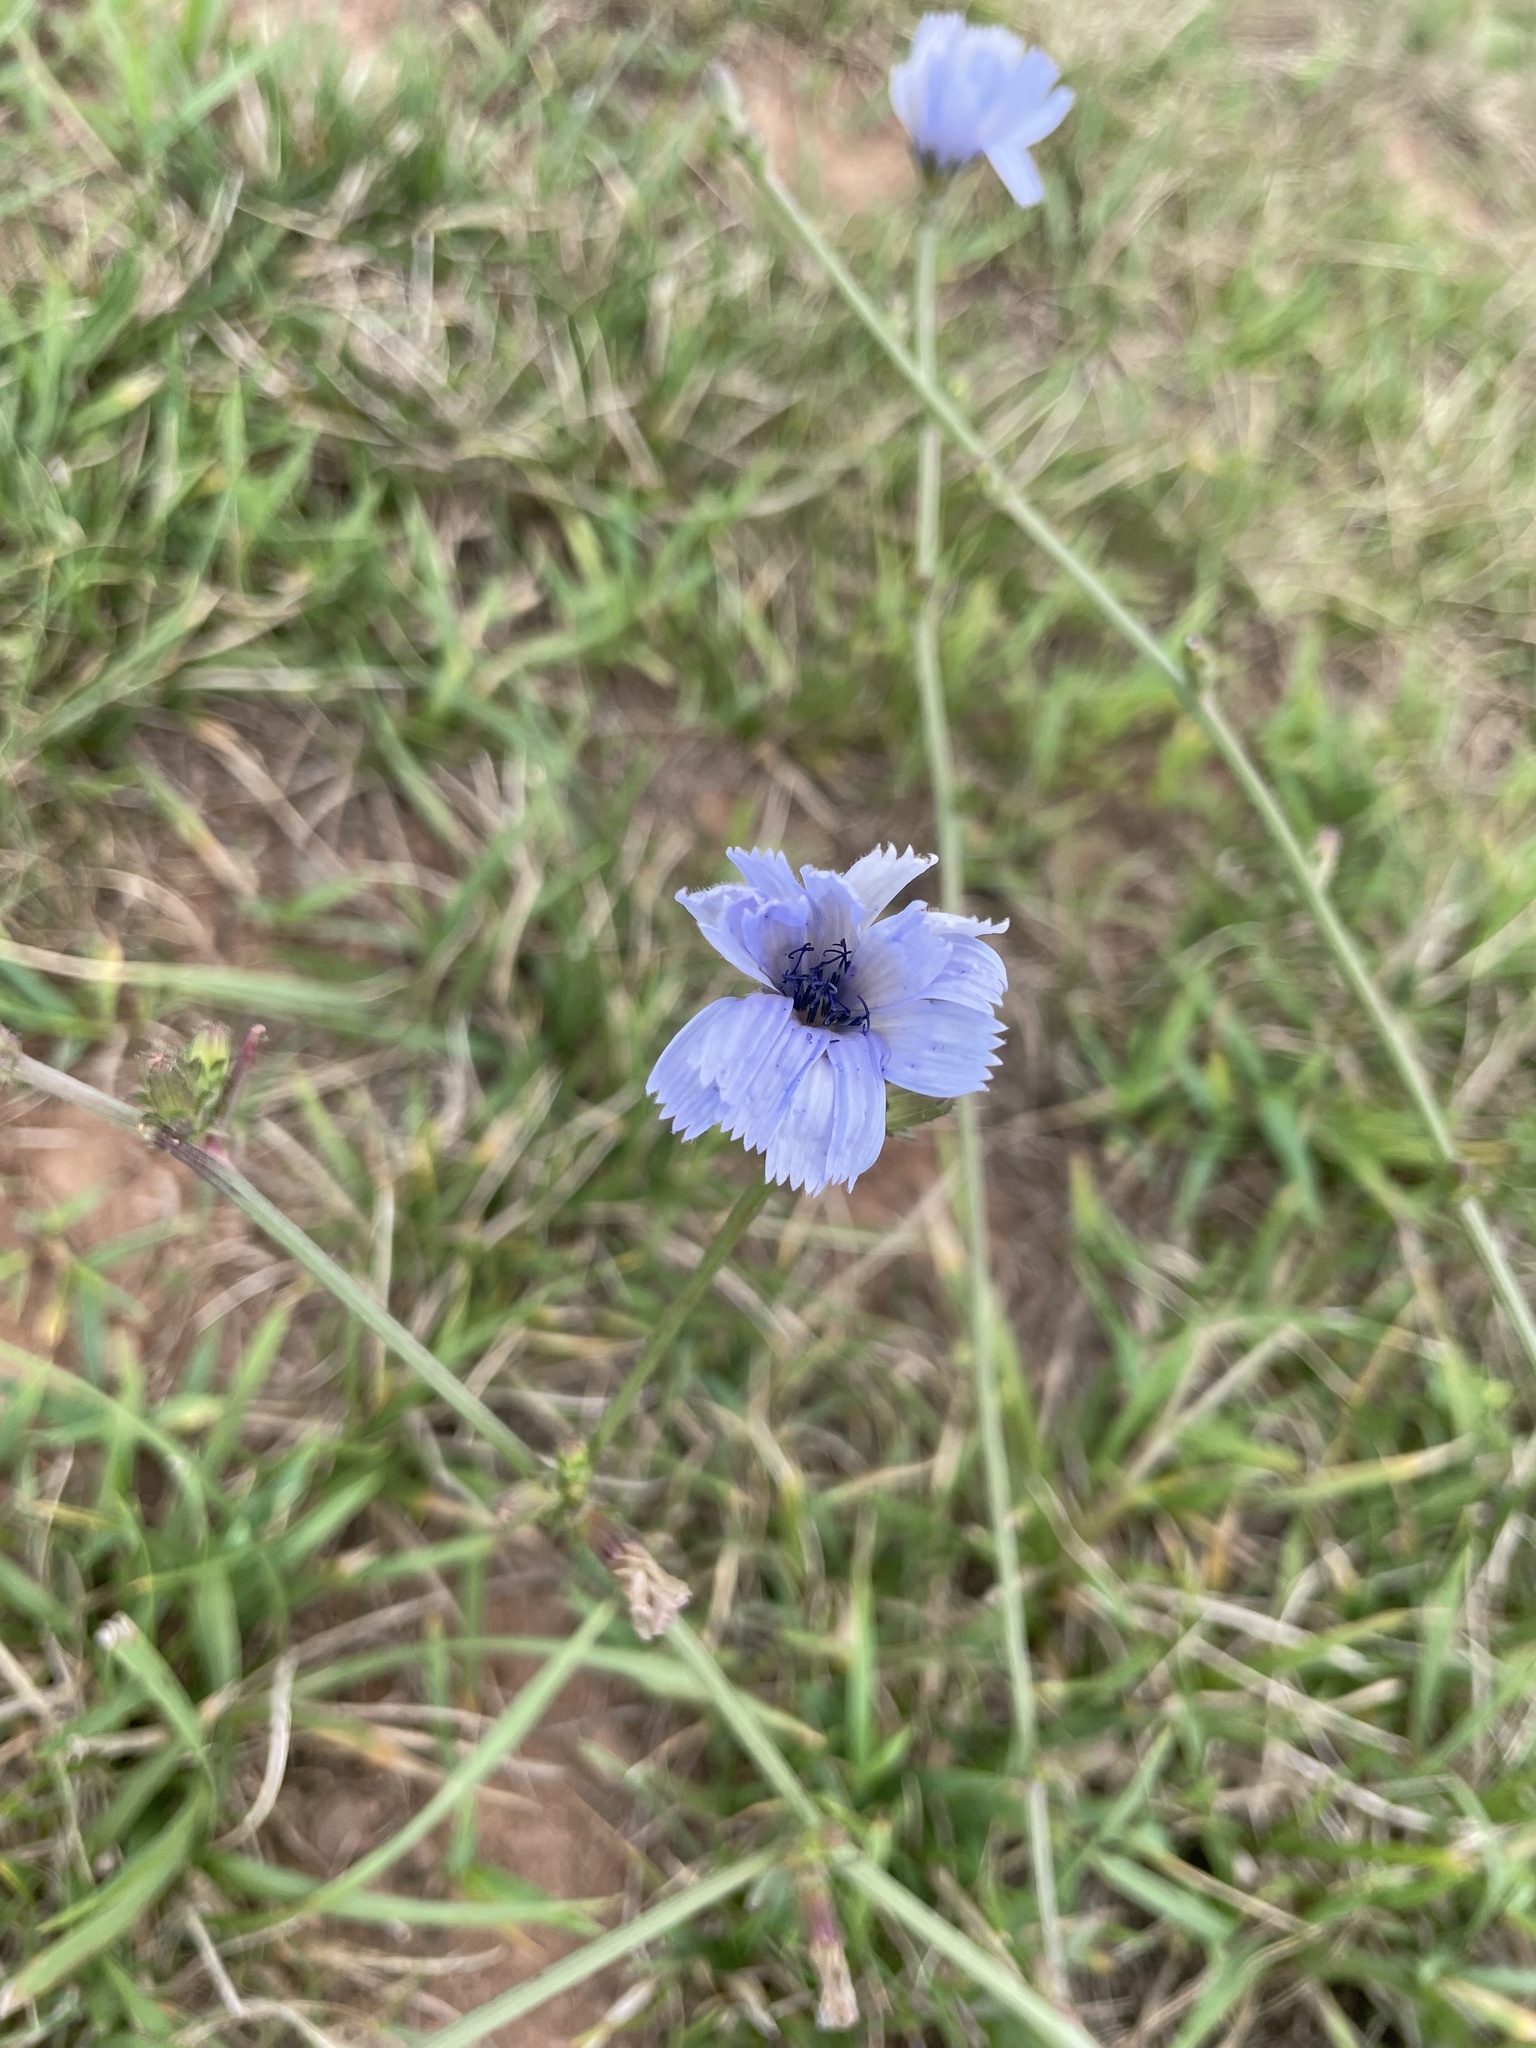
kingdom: Plantae
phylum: Tracheophyta
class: Magnoliopsida
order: Asterales
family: Asteraceae
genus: Cichorium
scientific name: Cichorium intybus
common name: Chicory
